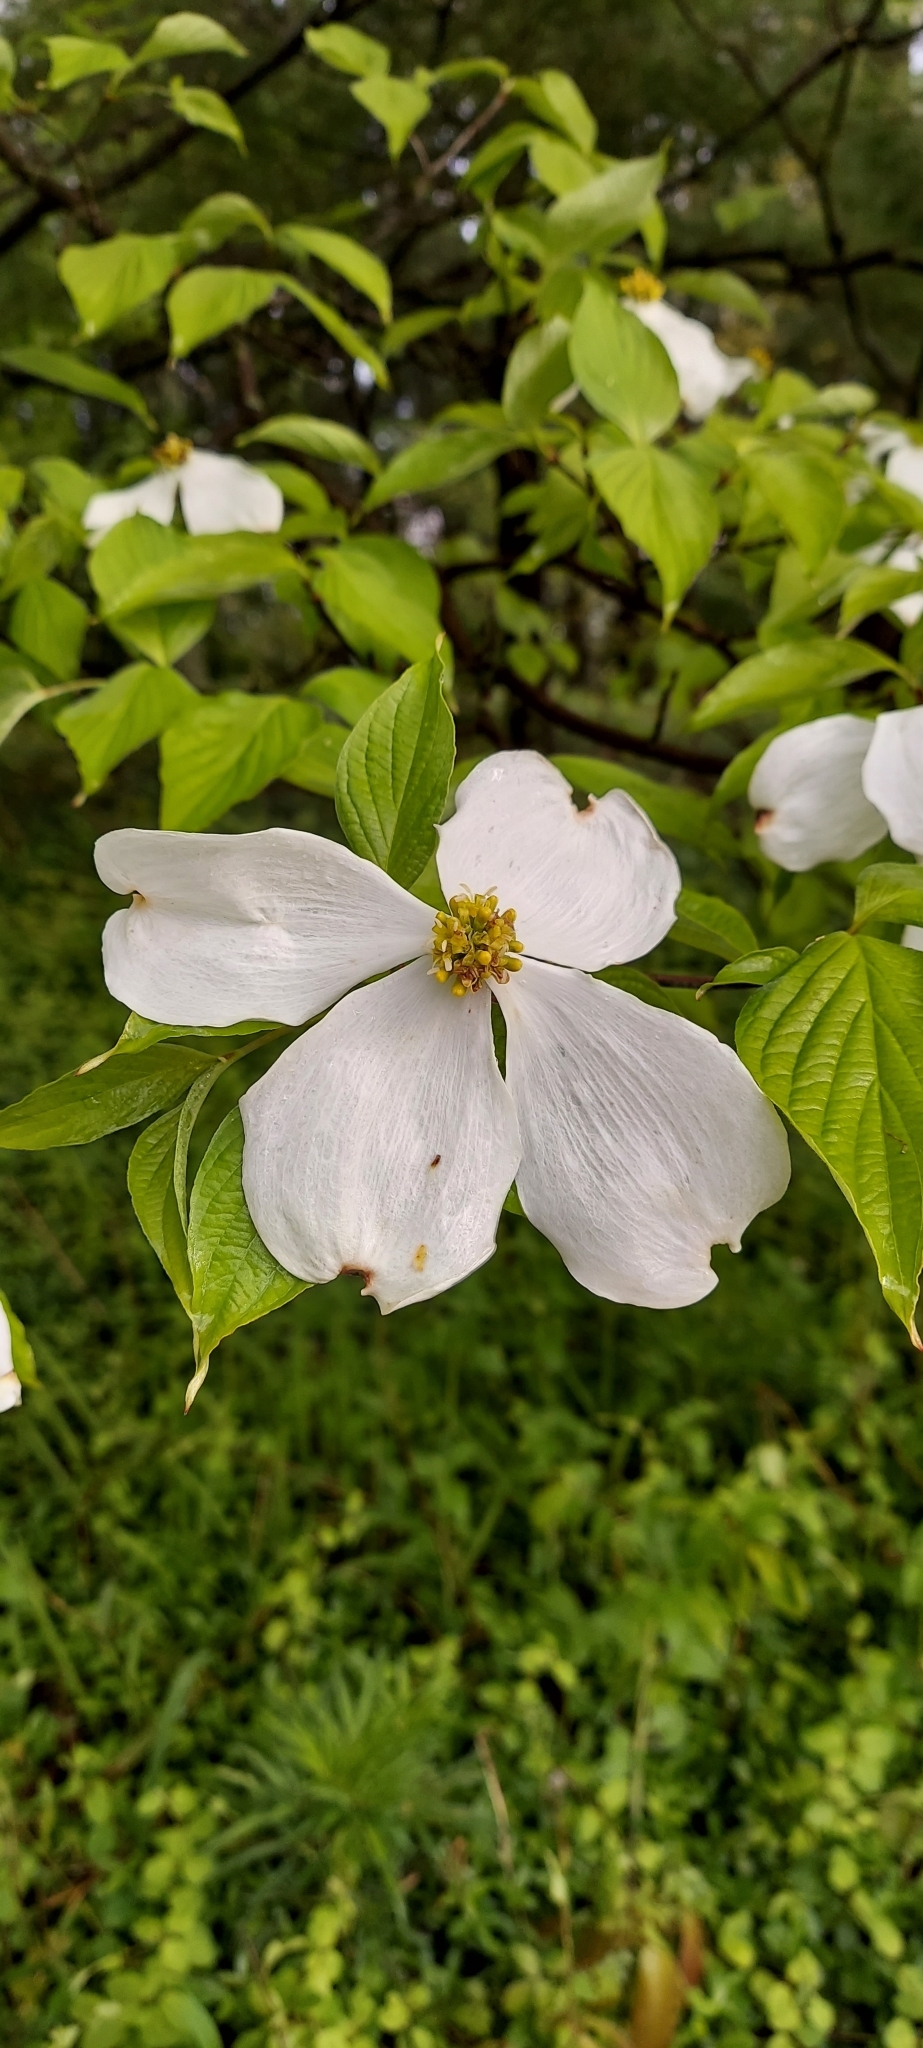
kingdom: Plantae
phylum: Tracheophyta
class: Magnoliopsida
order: Cornales
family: Cornaceae
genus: Cornus
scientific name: Cornus florida
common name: Flowering dogwood
